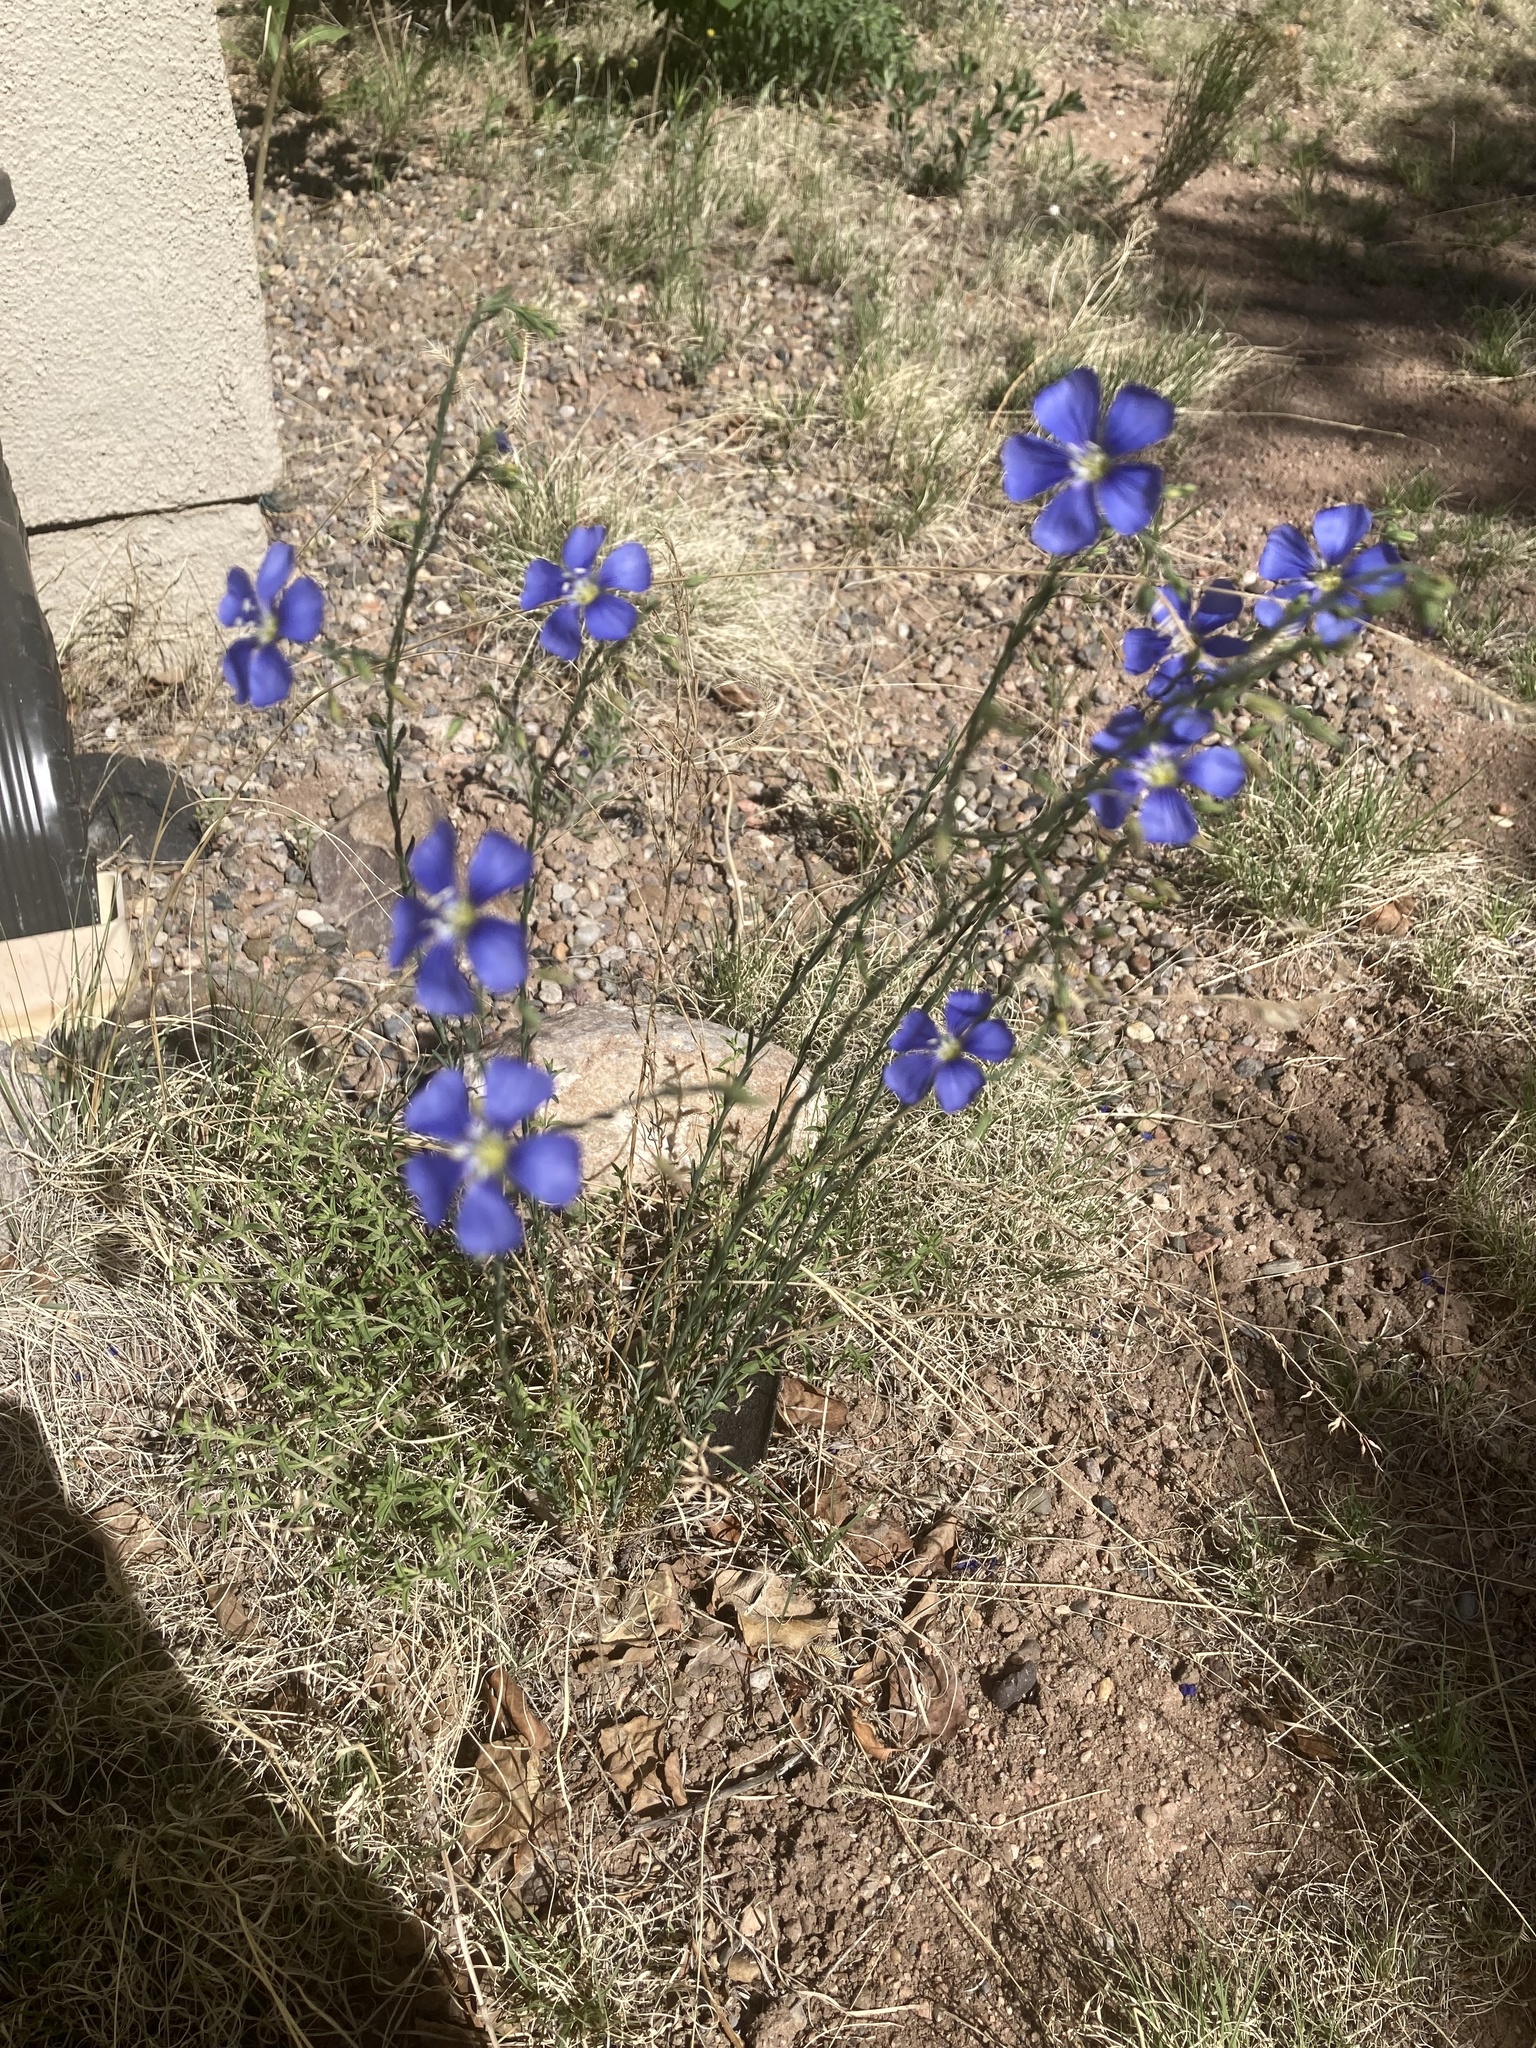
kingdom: Plantae
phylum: Tracheophyta
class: Magnoliopsida
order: Malpighiales
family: Linaceae
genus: Linum
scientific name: Linum lewisii
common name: Prairie flax
